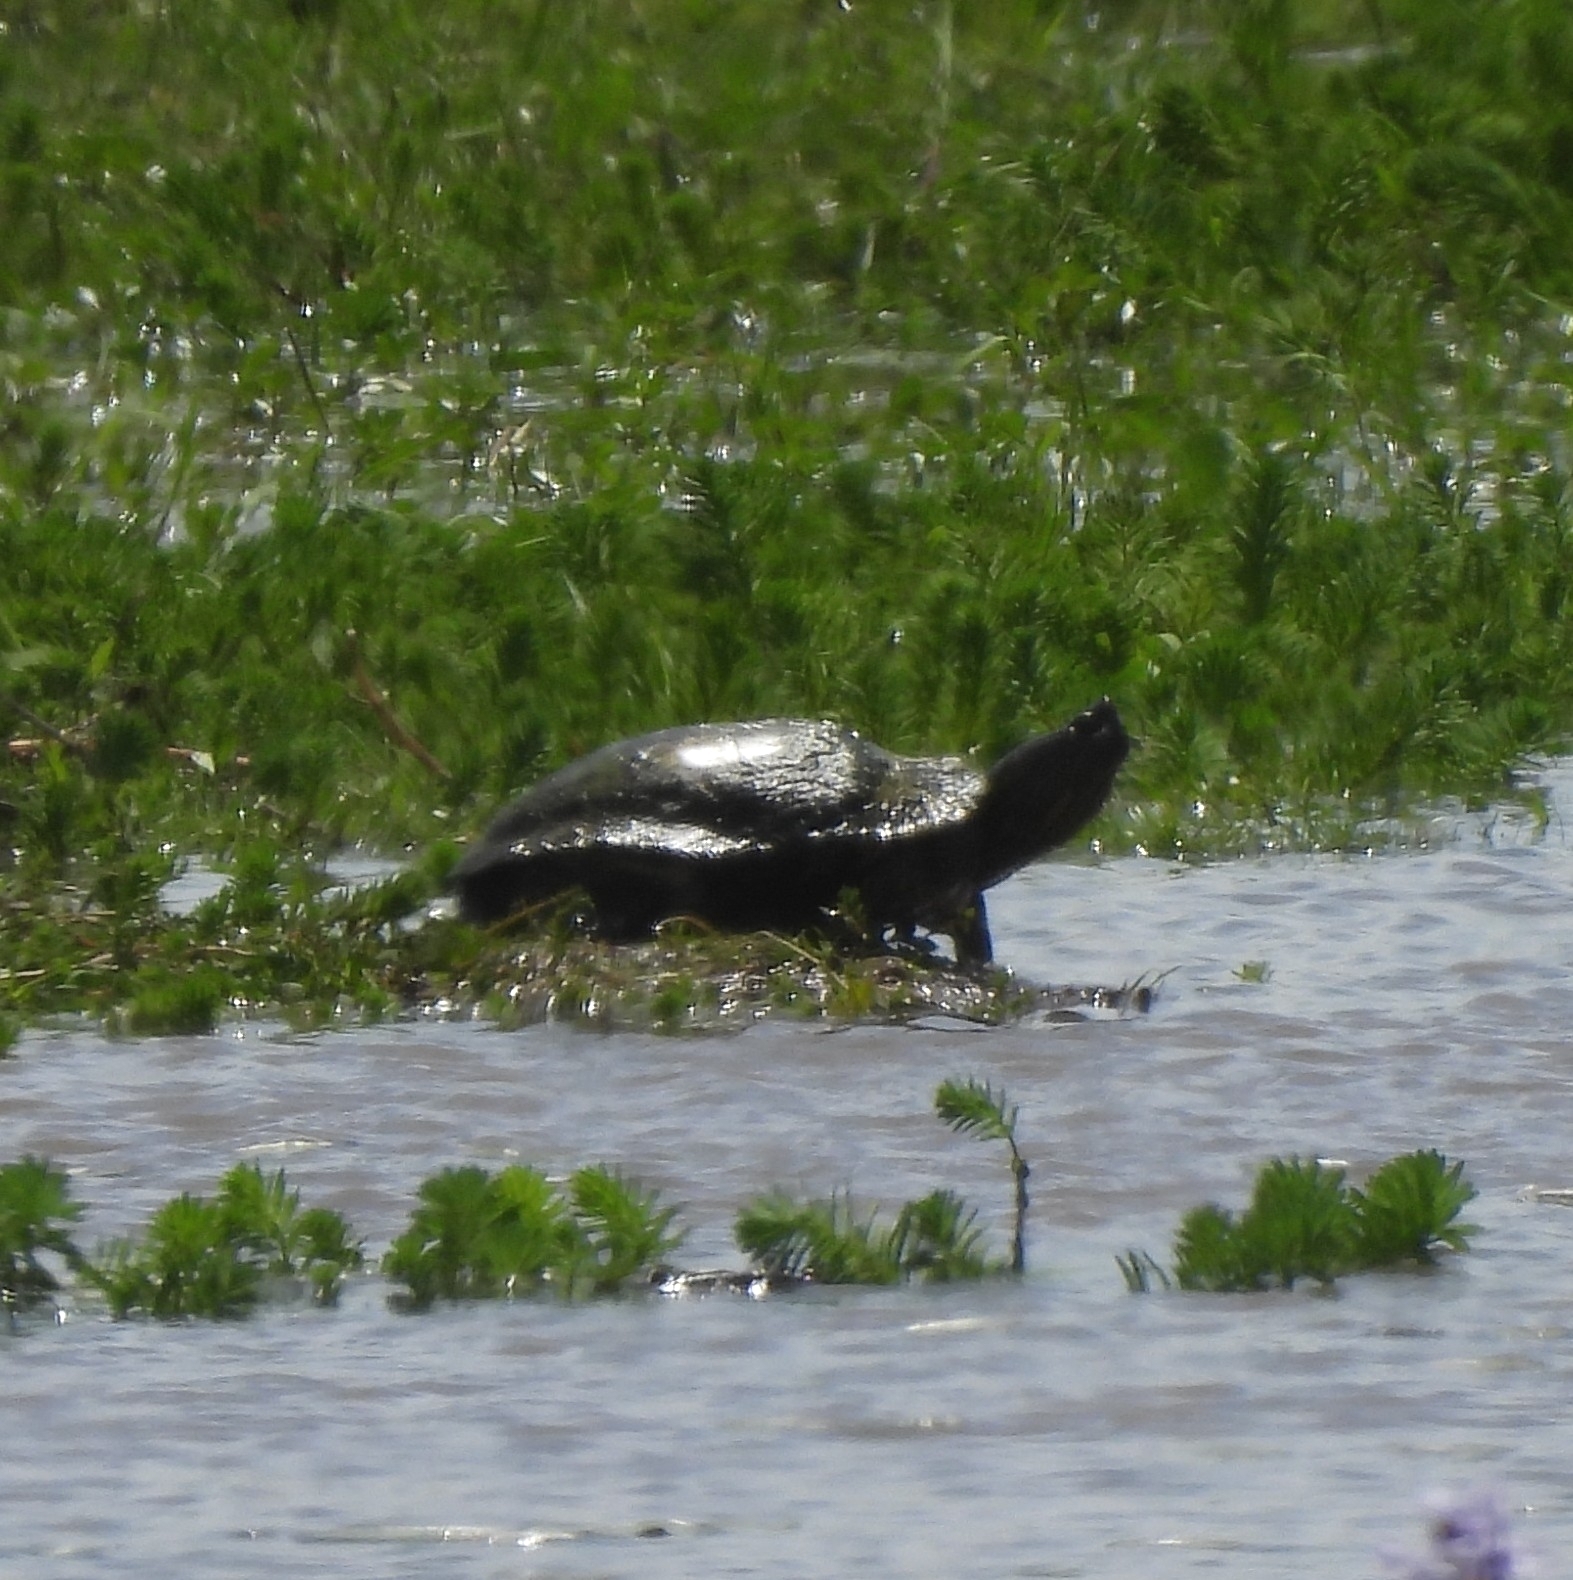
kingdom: Animalia
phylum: Chordata
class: Testudines
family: Emydidae
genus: Trachemys
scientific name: Trachemys dorbigni
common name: Black-bellied slider
